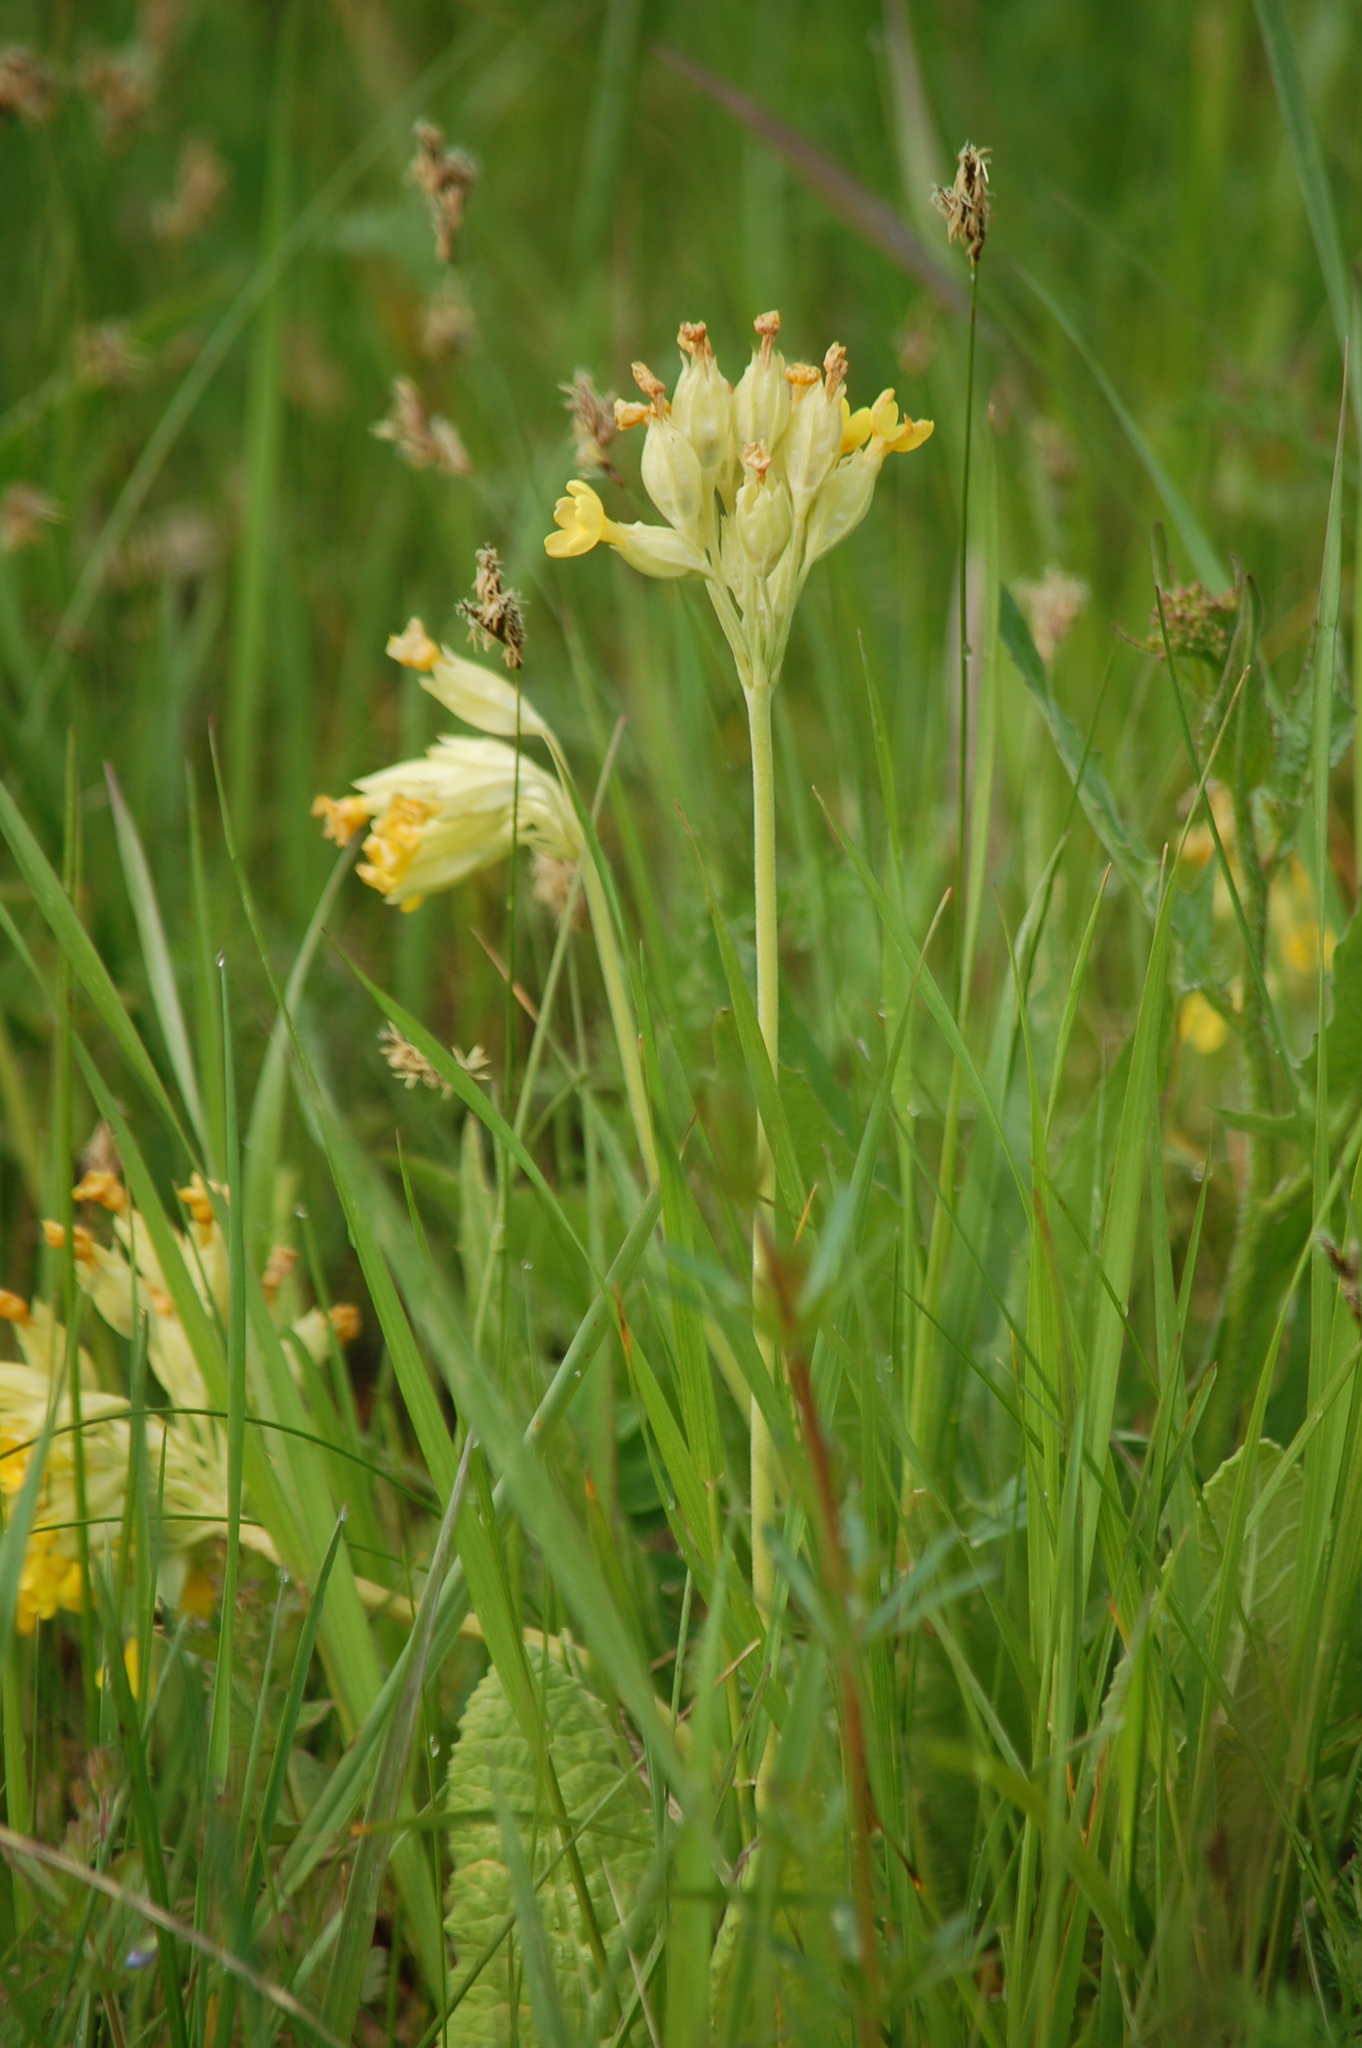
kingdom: Plantae
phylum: Tracheophyta
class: Magnoliopsida
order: Ericales
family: Primulaceae
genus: Primula
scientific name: Primula veris
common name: Cowslip
